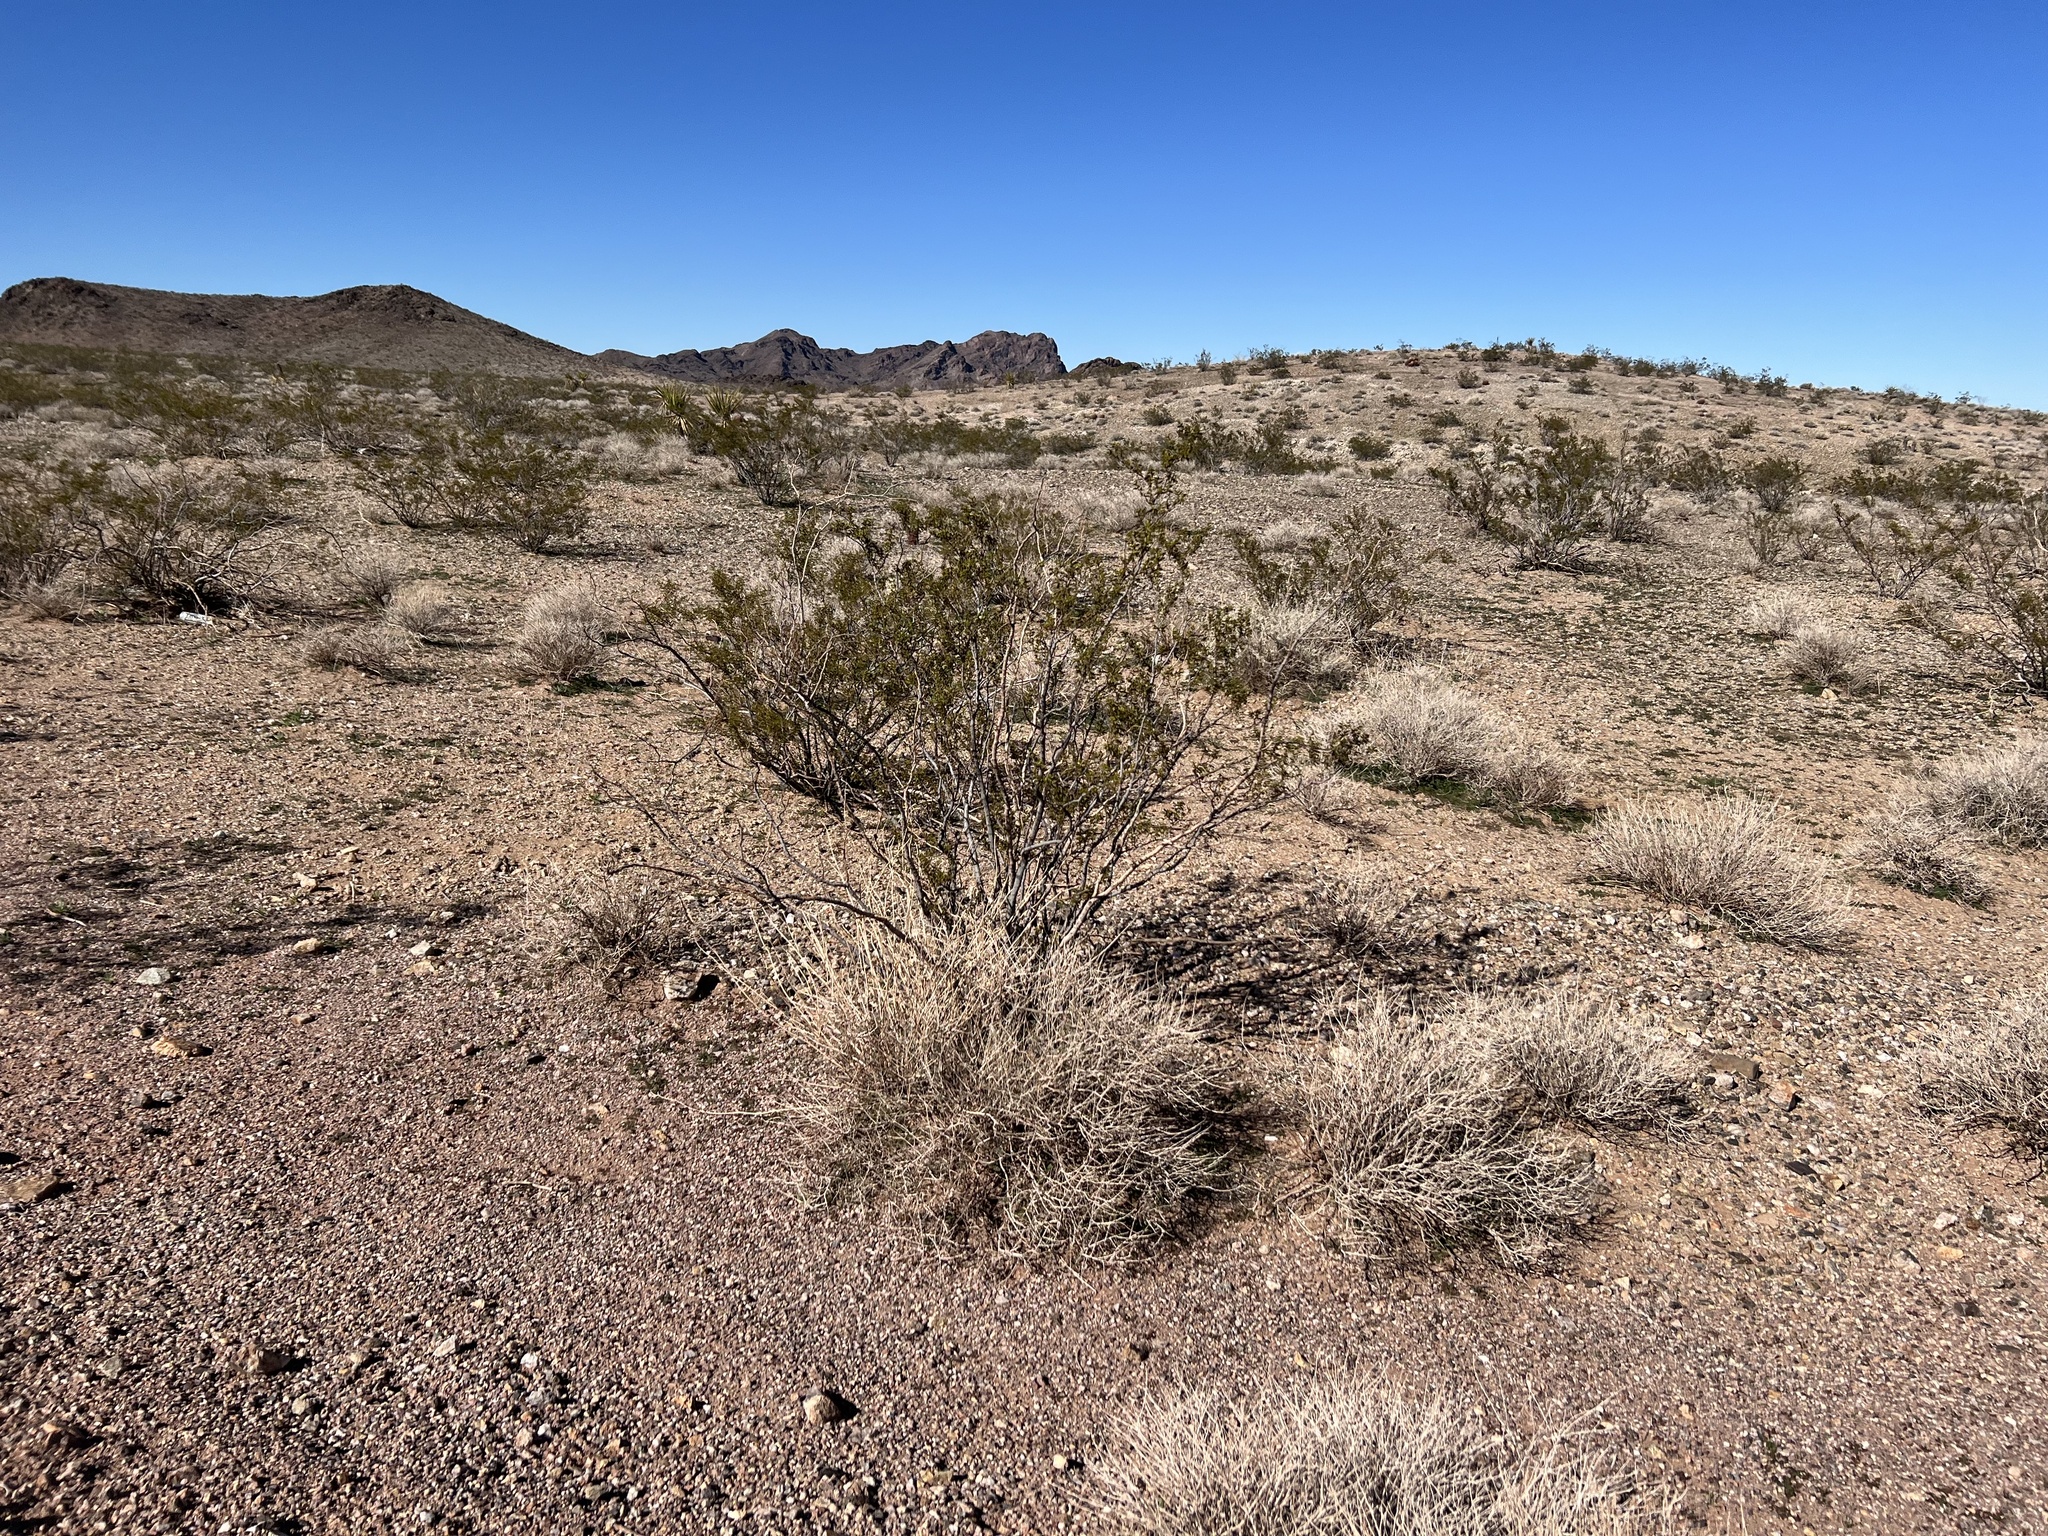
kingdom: Plantae
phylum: Tracheophyta
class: Magnoliopsida
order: Zygophyllales
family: Zygophyllaceae
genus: Larrea
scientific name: Larrea tridentata
